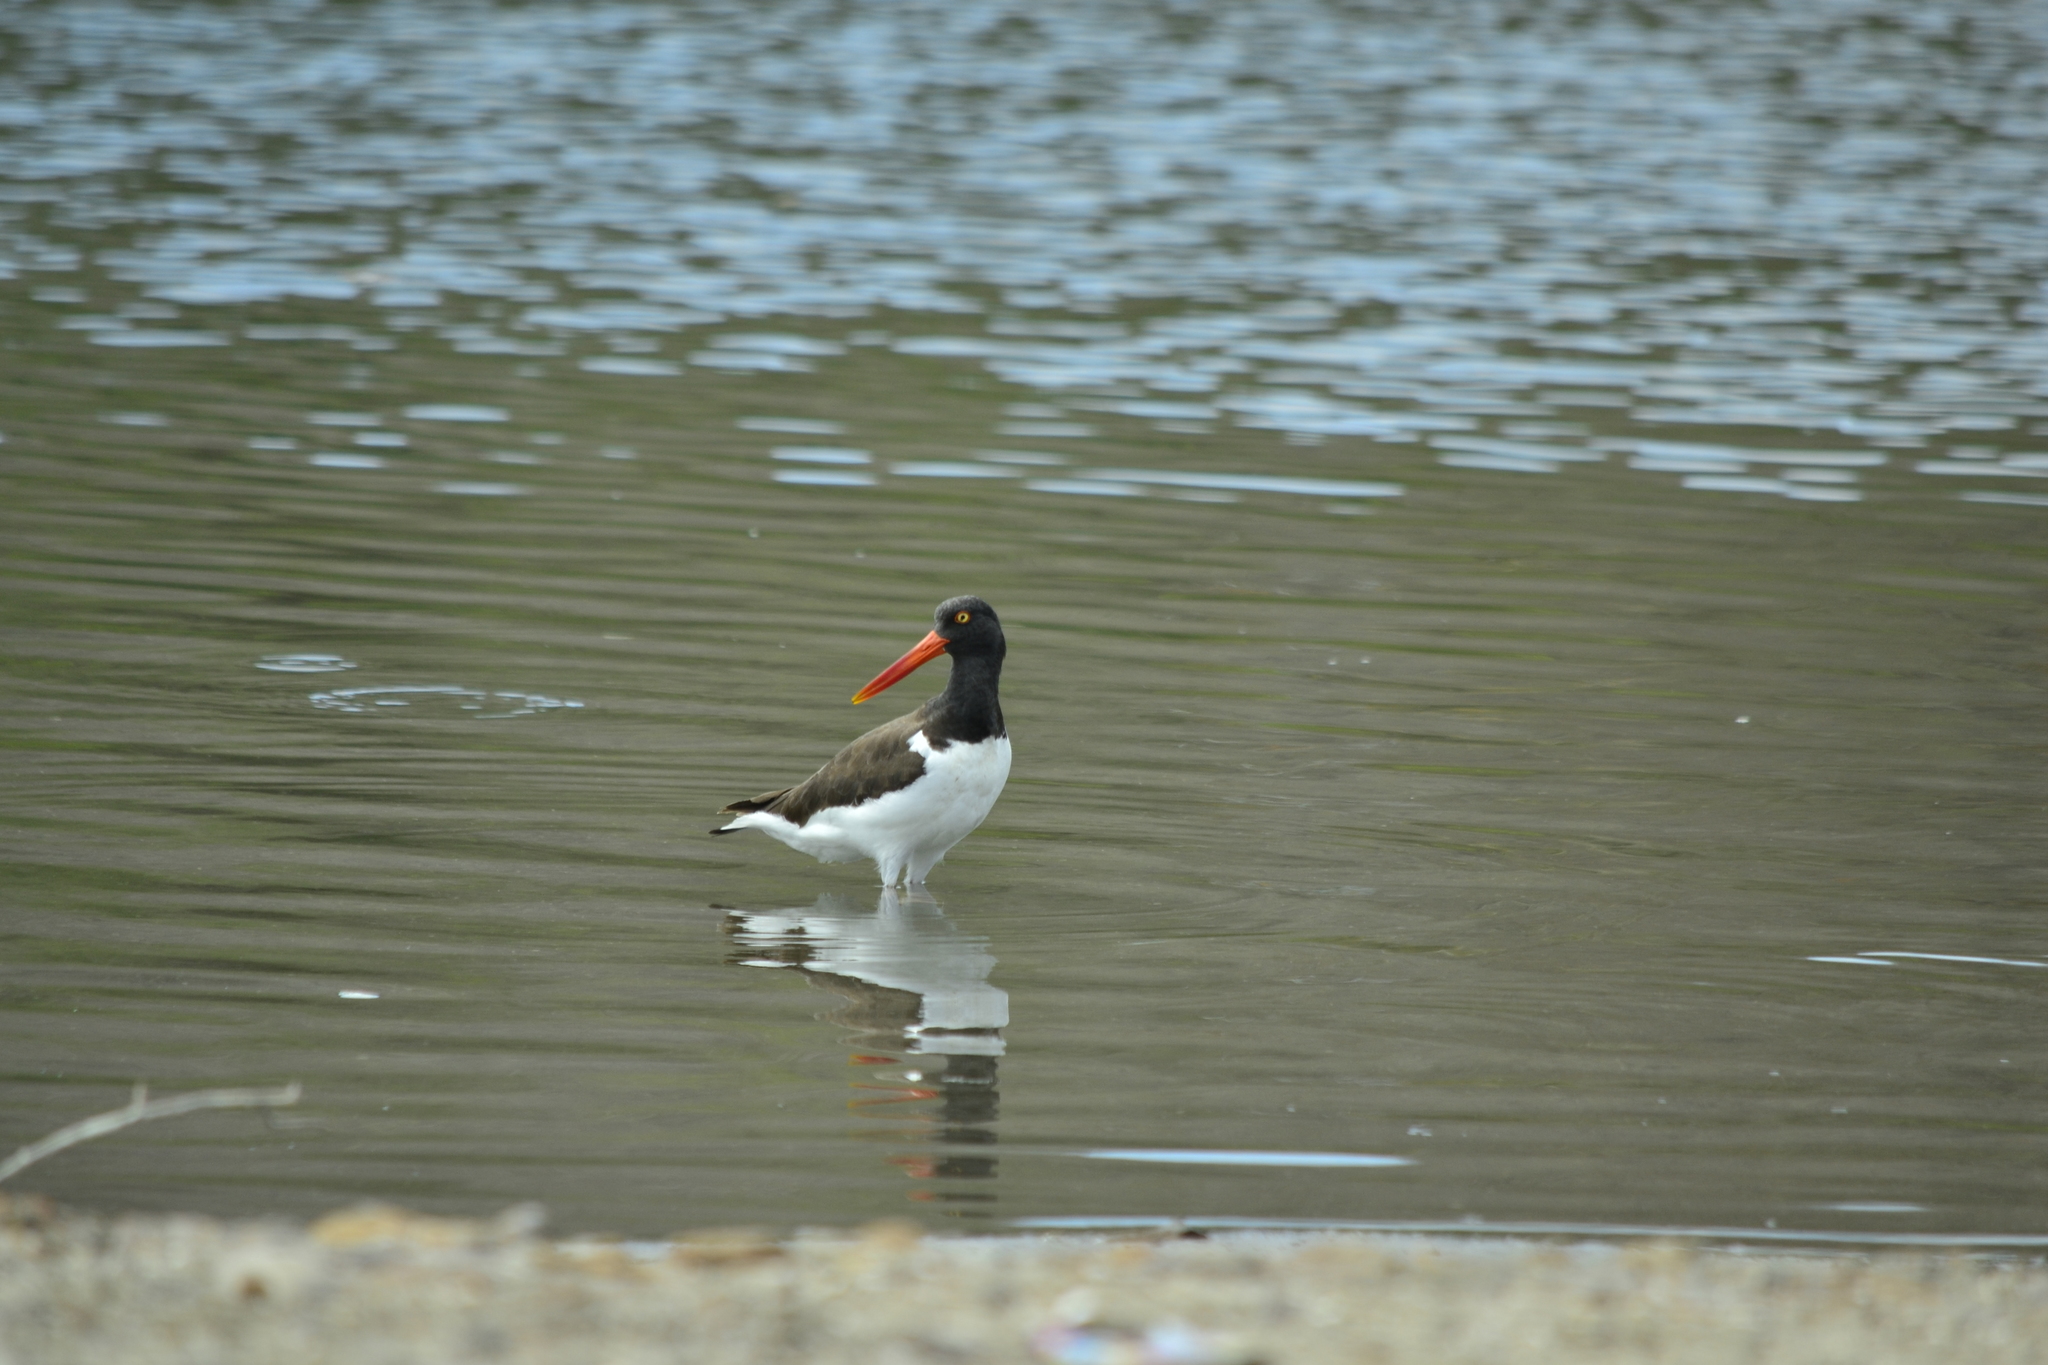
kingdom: Animalia
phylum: Chordata
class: Aves
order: Charadriiformes
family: Haematopodidae
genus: Haematopus
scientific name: Haematopus palliatus
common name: American oystercatcher
